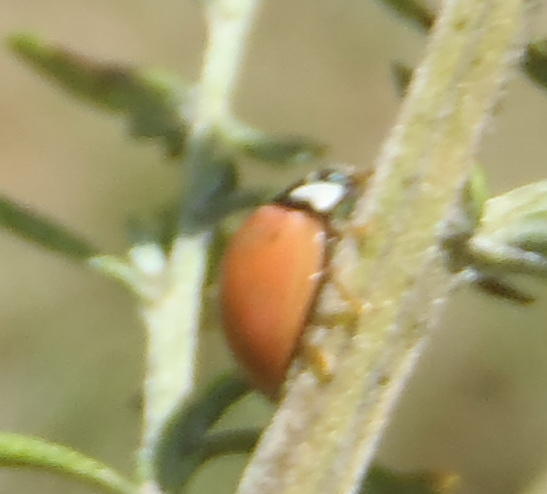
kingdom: Animalia
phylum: Arthropoda
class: Insecta
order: Coleoptera
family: Coccinellidae
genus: Cheilomenes
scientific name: Cheilomenes propinqua
